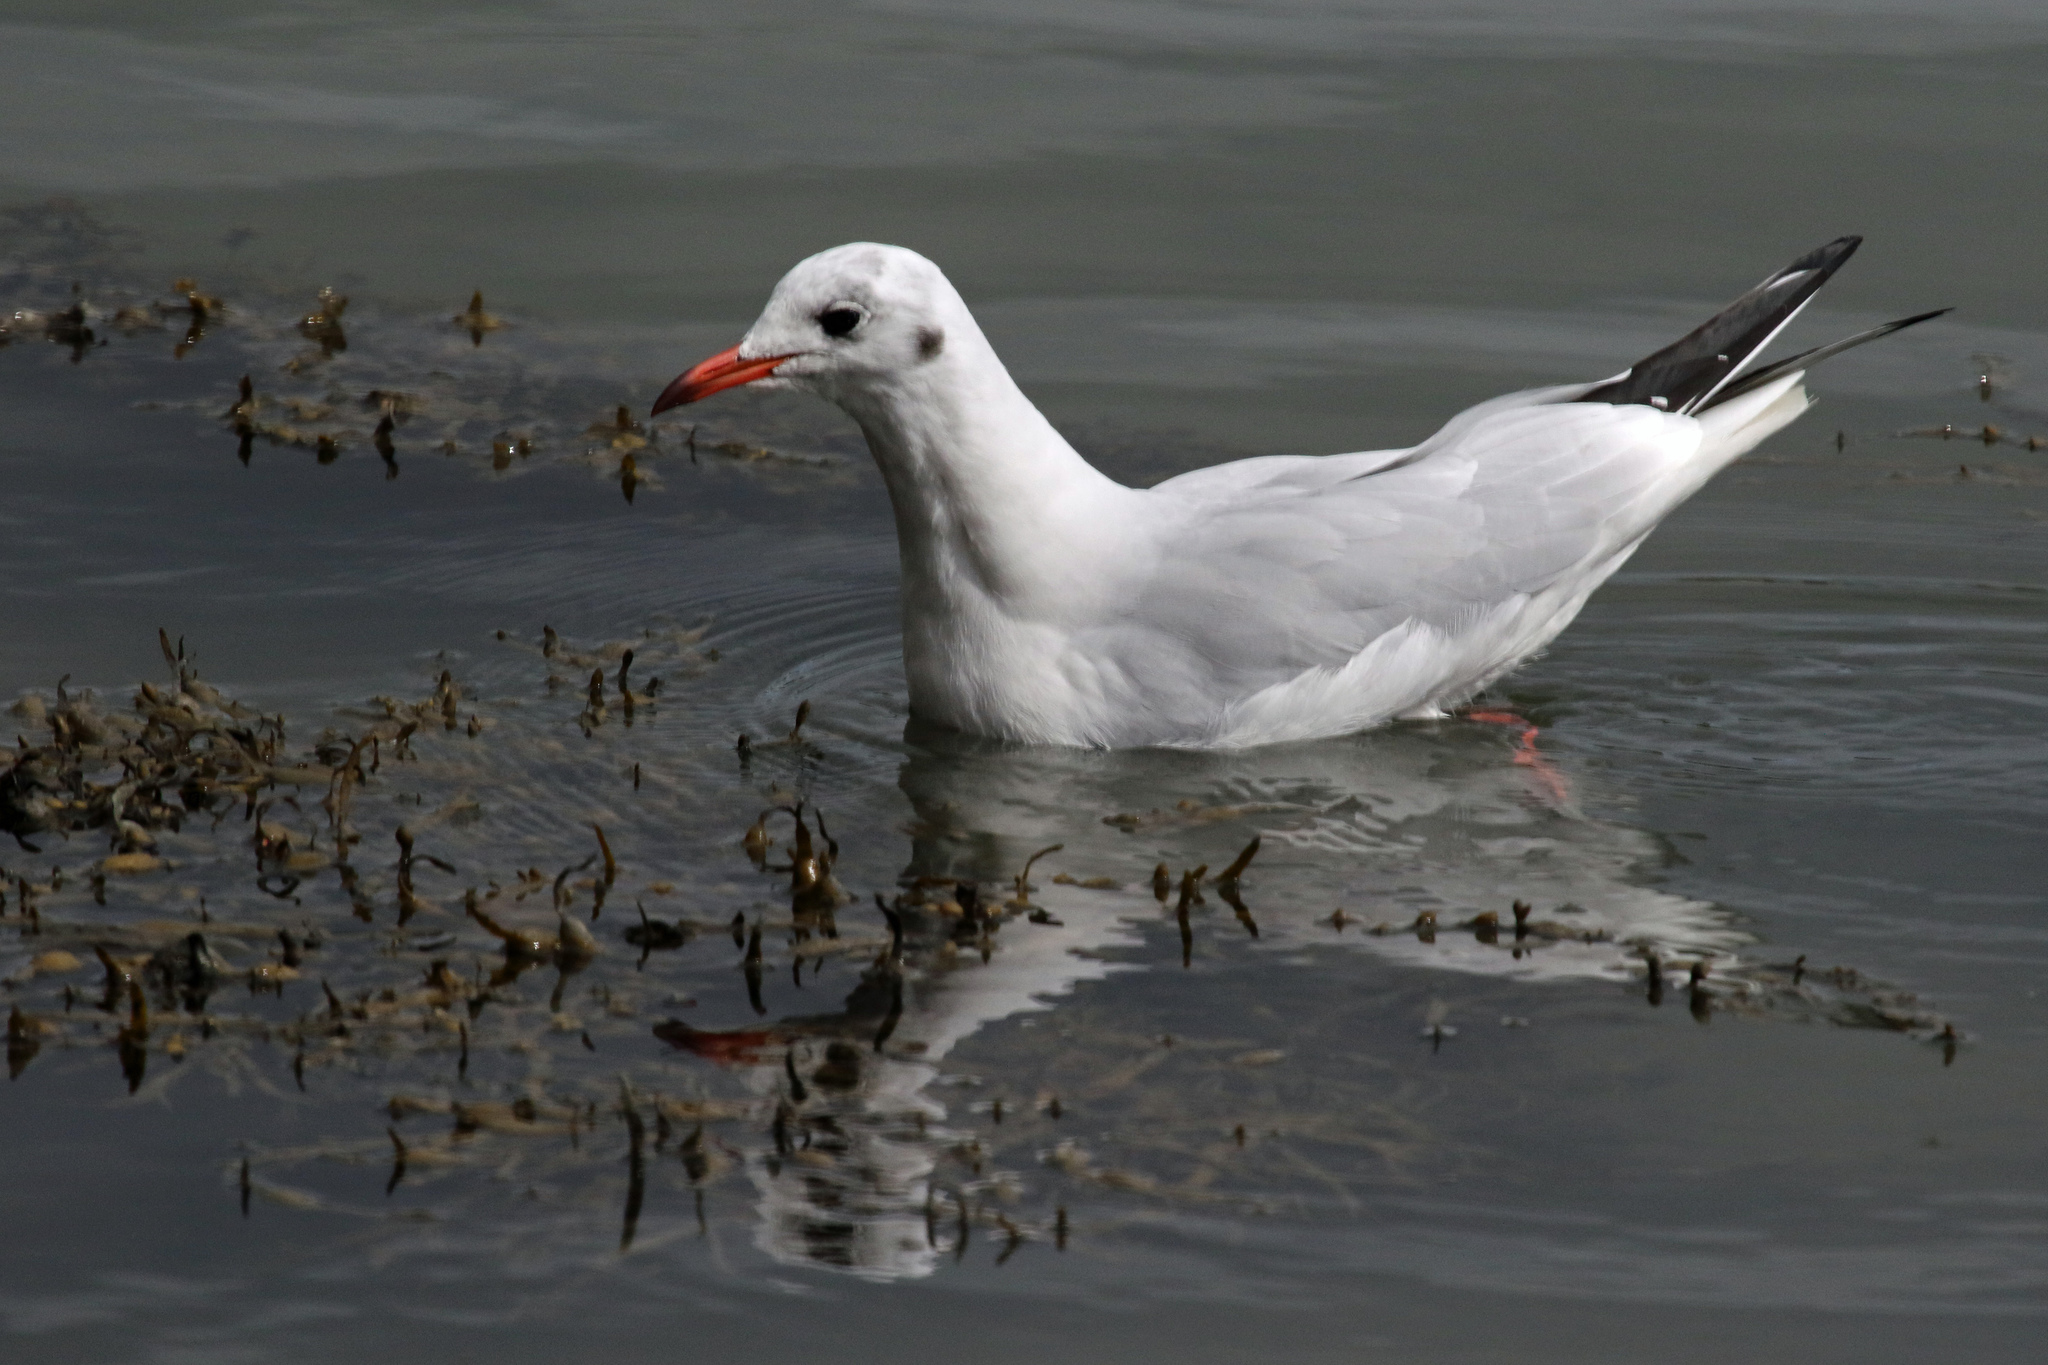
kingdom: Animalia
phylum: Chordata
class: Aves
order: Charadriiformes
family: Laridae
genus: Chroicocephalus
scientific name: Chroicocephalus ridibundus
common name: Black-headed gull
